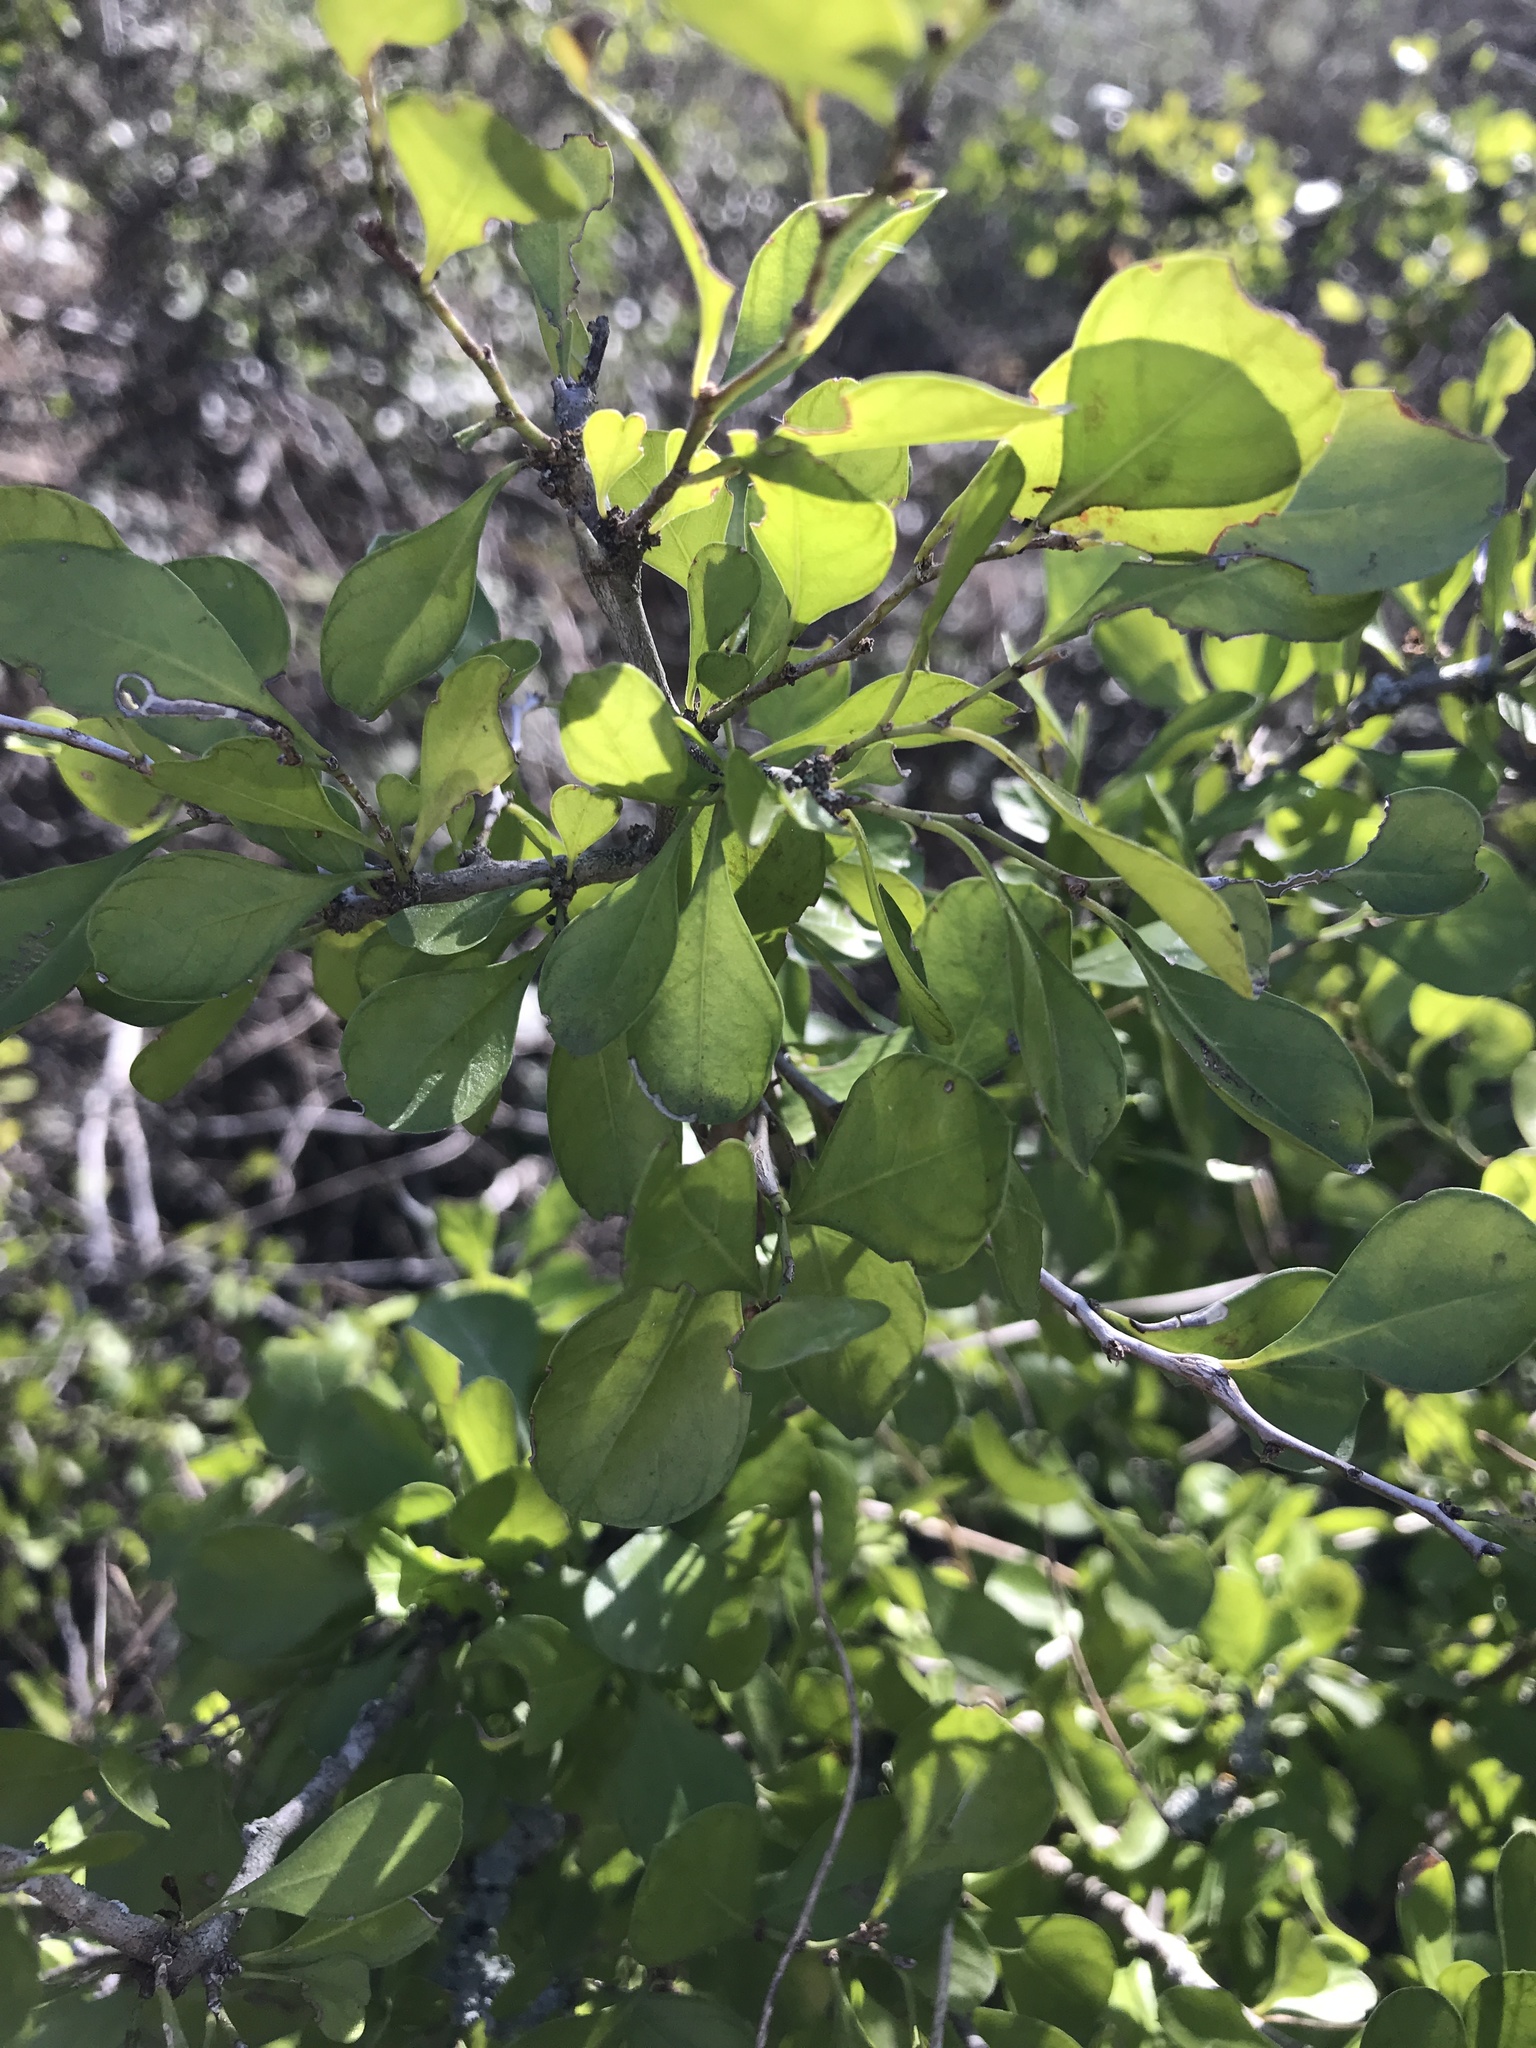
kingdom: Plantae
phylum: Tracheophyta
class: Magnoliopsida
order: Rosales
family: Rhamnaceae
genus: Condalia
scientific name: Condalia hookeri
